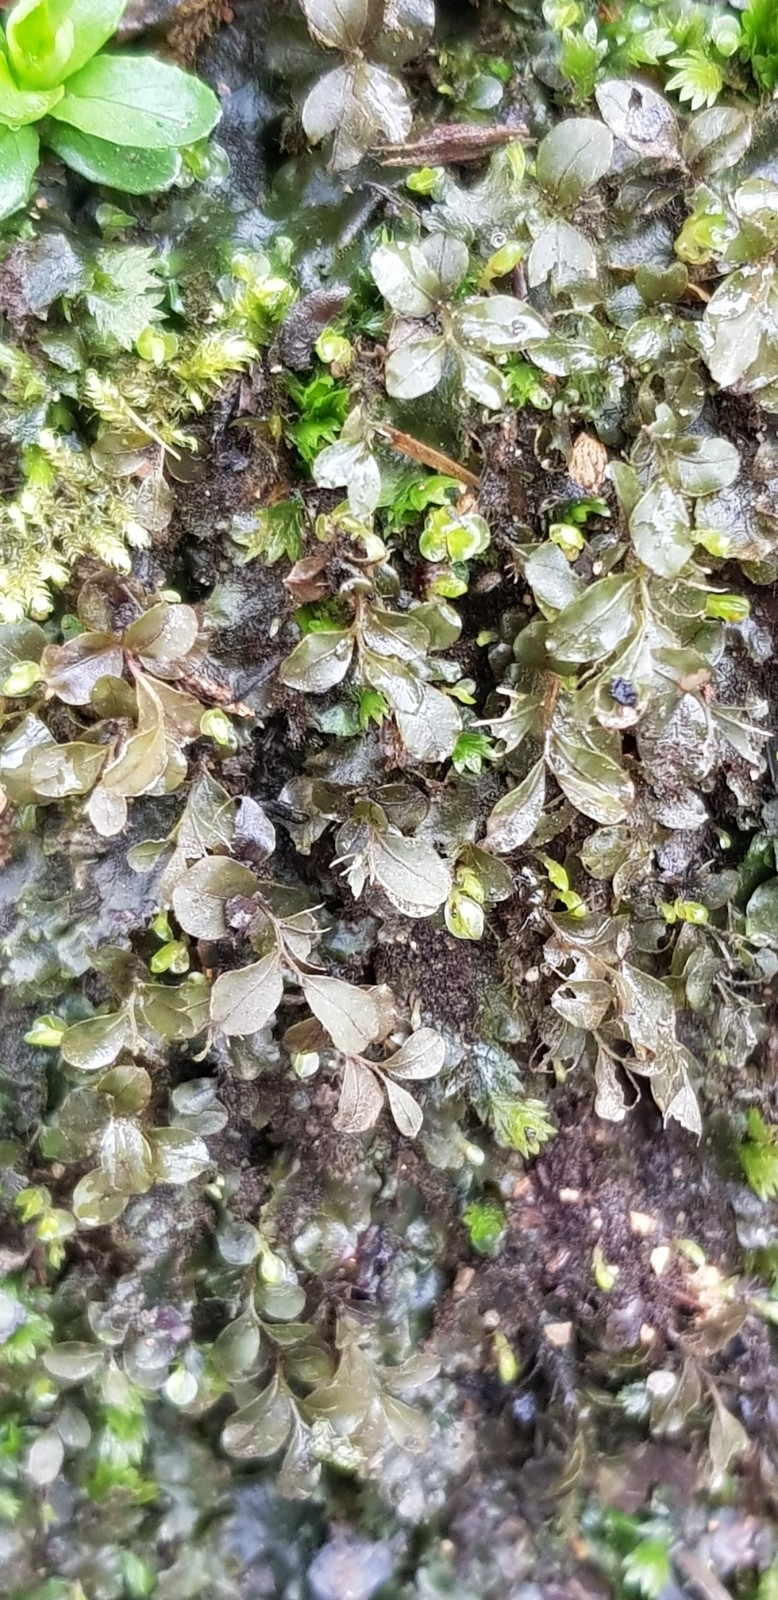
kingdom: Plantae
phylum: Bryophyta
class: Bryopsida
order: Bryales
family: Mniaceae
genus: Rhizomnium
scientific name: Rhizomnium punctatum
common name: Dotted leafy moss
